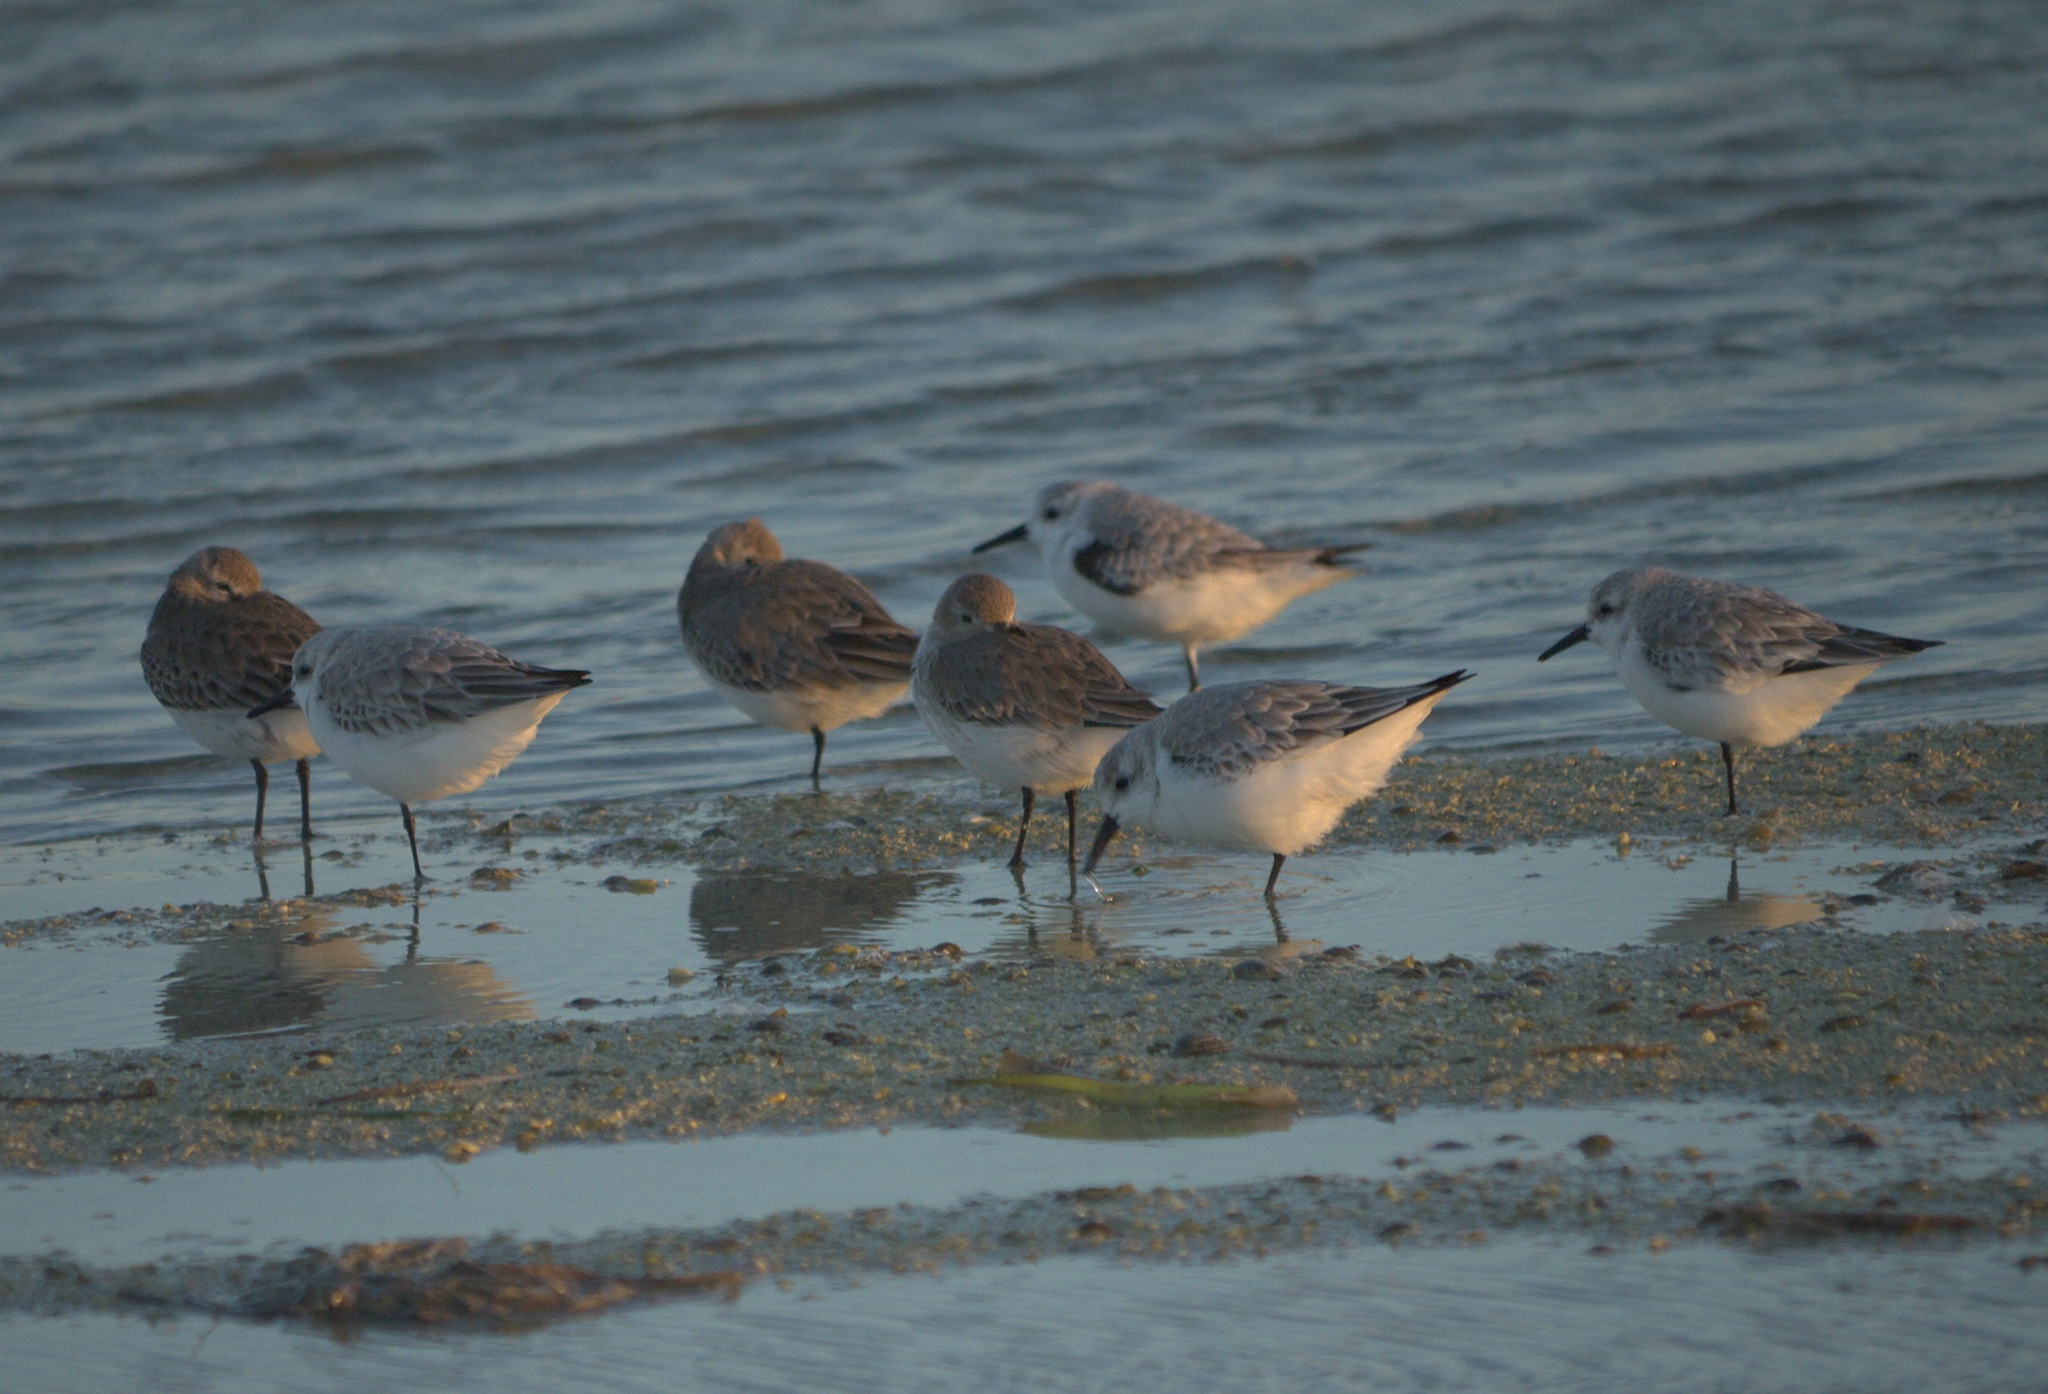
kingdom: Animalia
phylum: Chordata
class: Aves
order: Charadriiformes
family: Scolopacidae
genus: Calidris
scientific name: Calidris alba
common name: Sanderling
